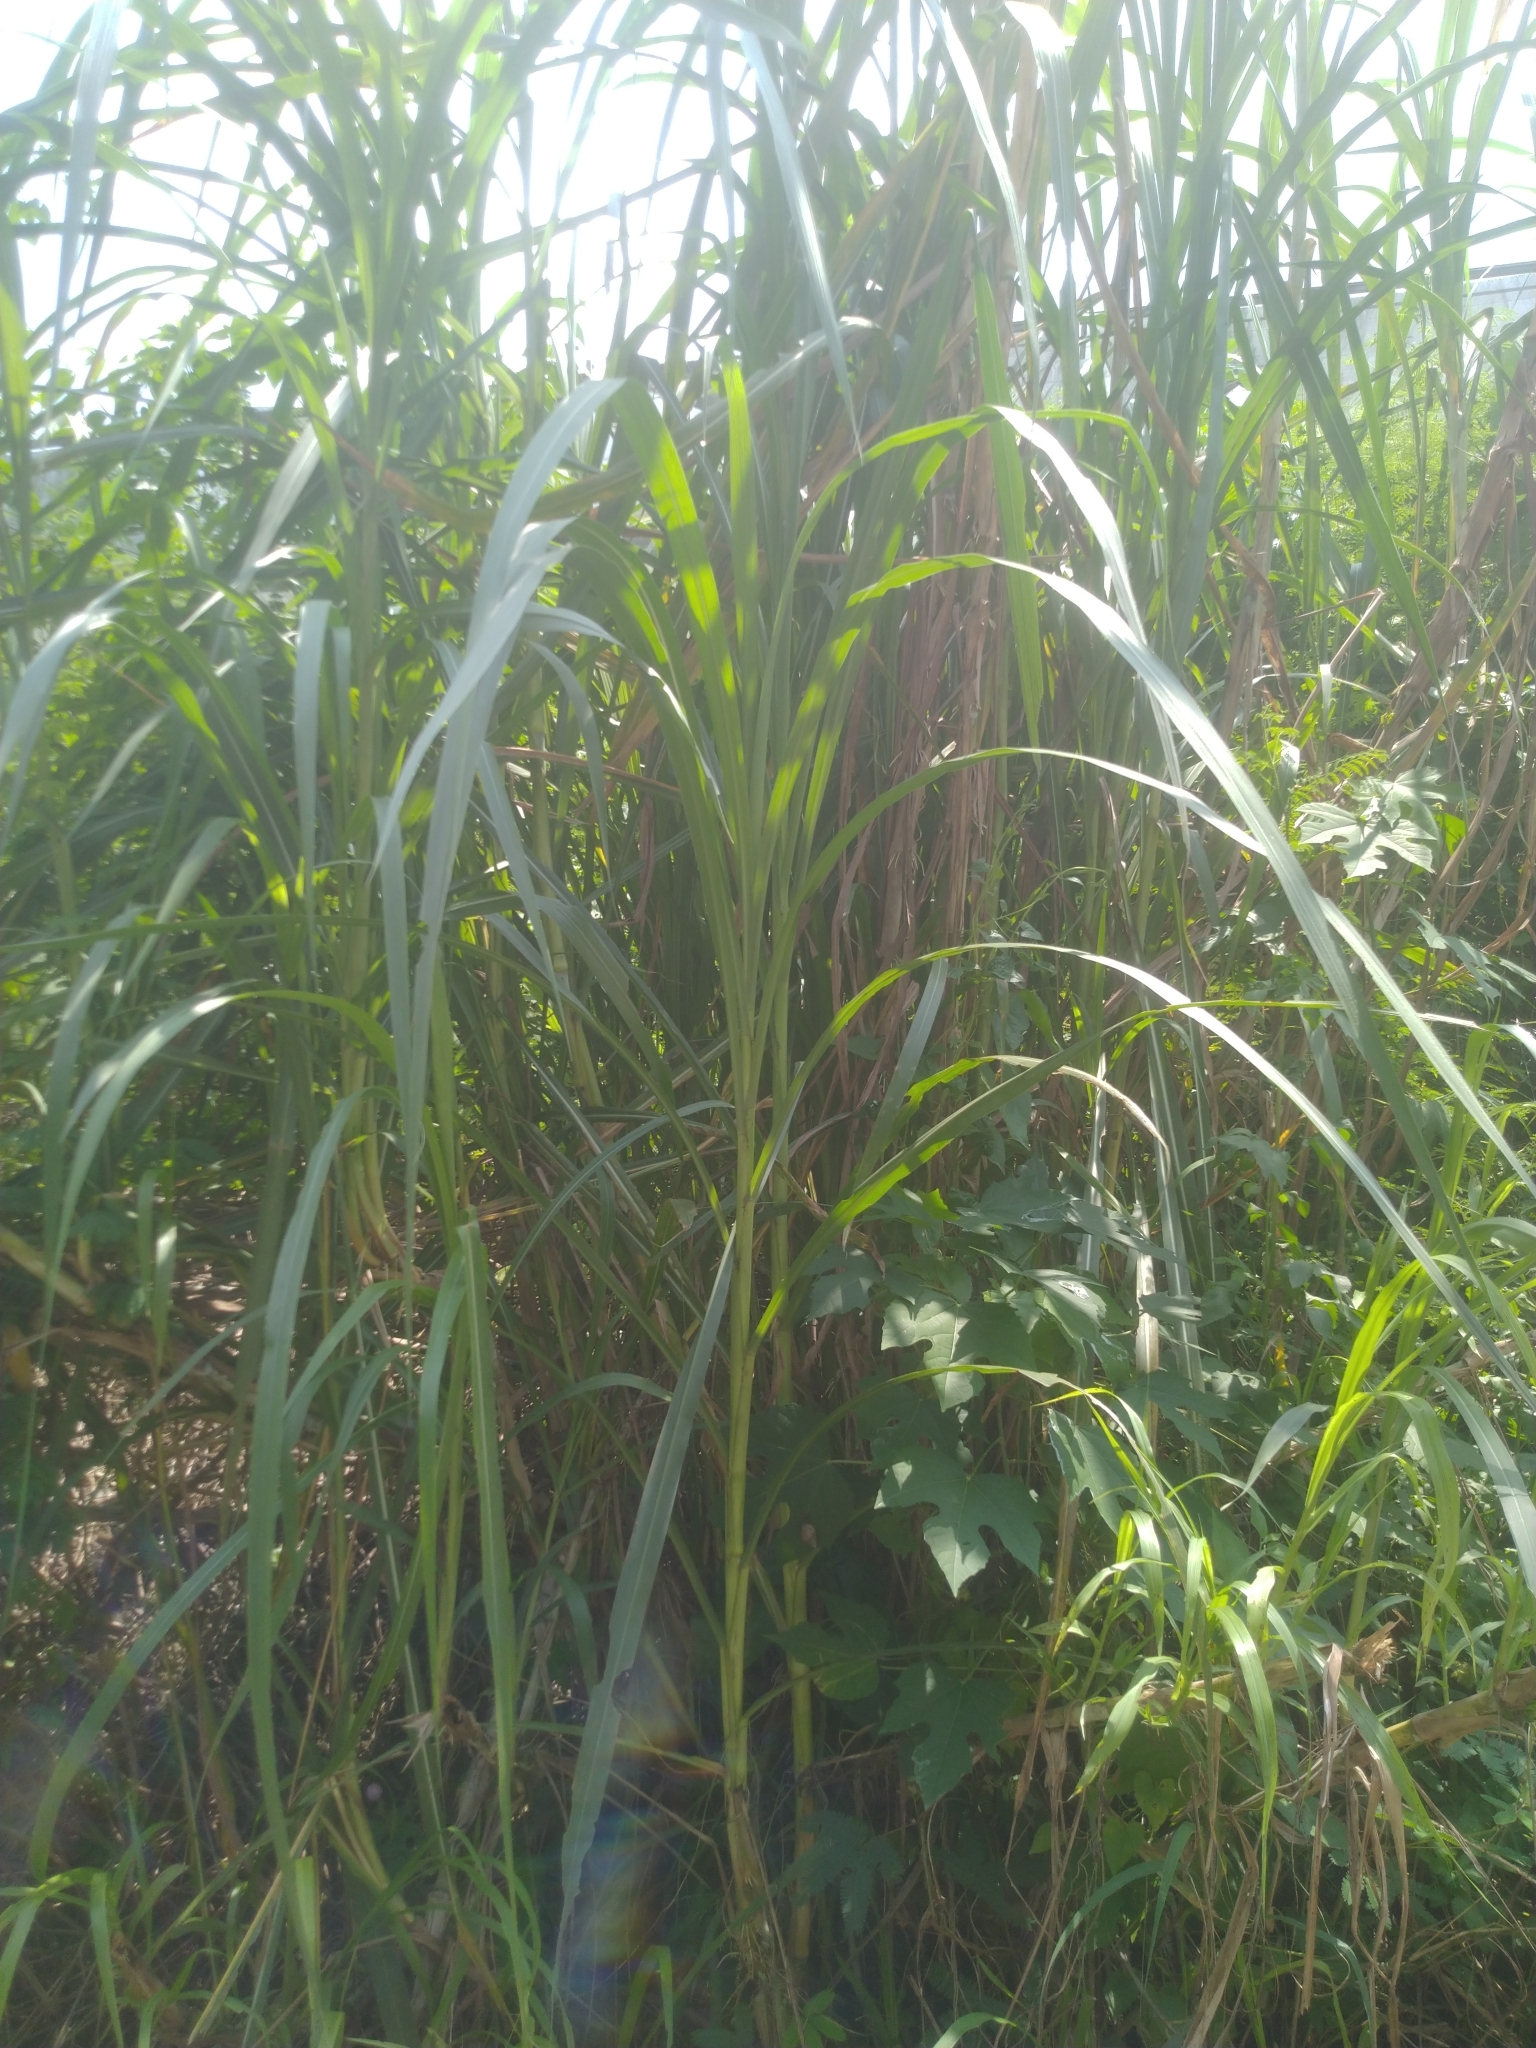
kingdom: Plantae
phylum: Tracheophyta
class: Liliopsida
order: Poales
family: Poaceae
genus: Cenchrus
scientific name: Cenchrus purpureus
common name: Elephant grass
